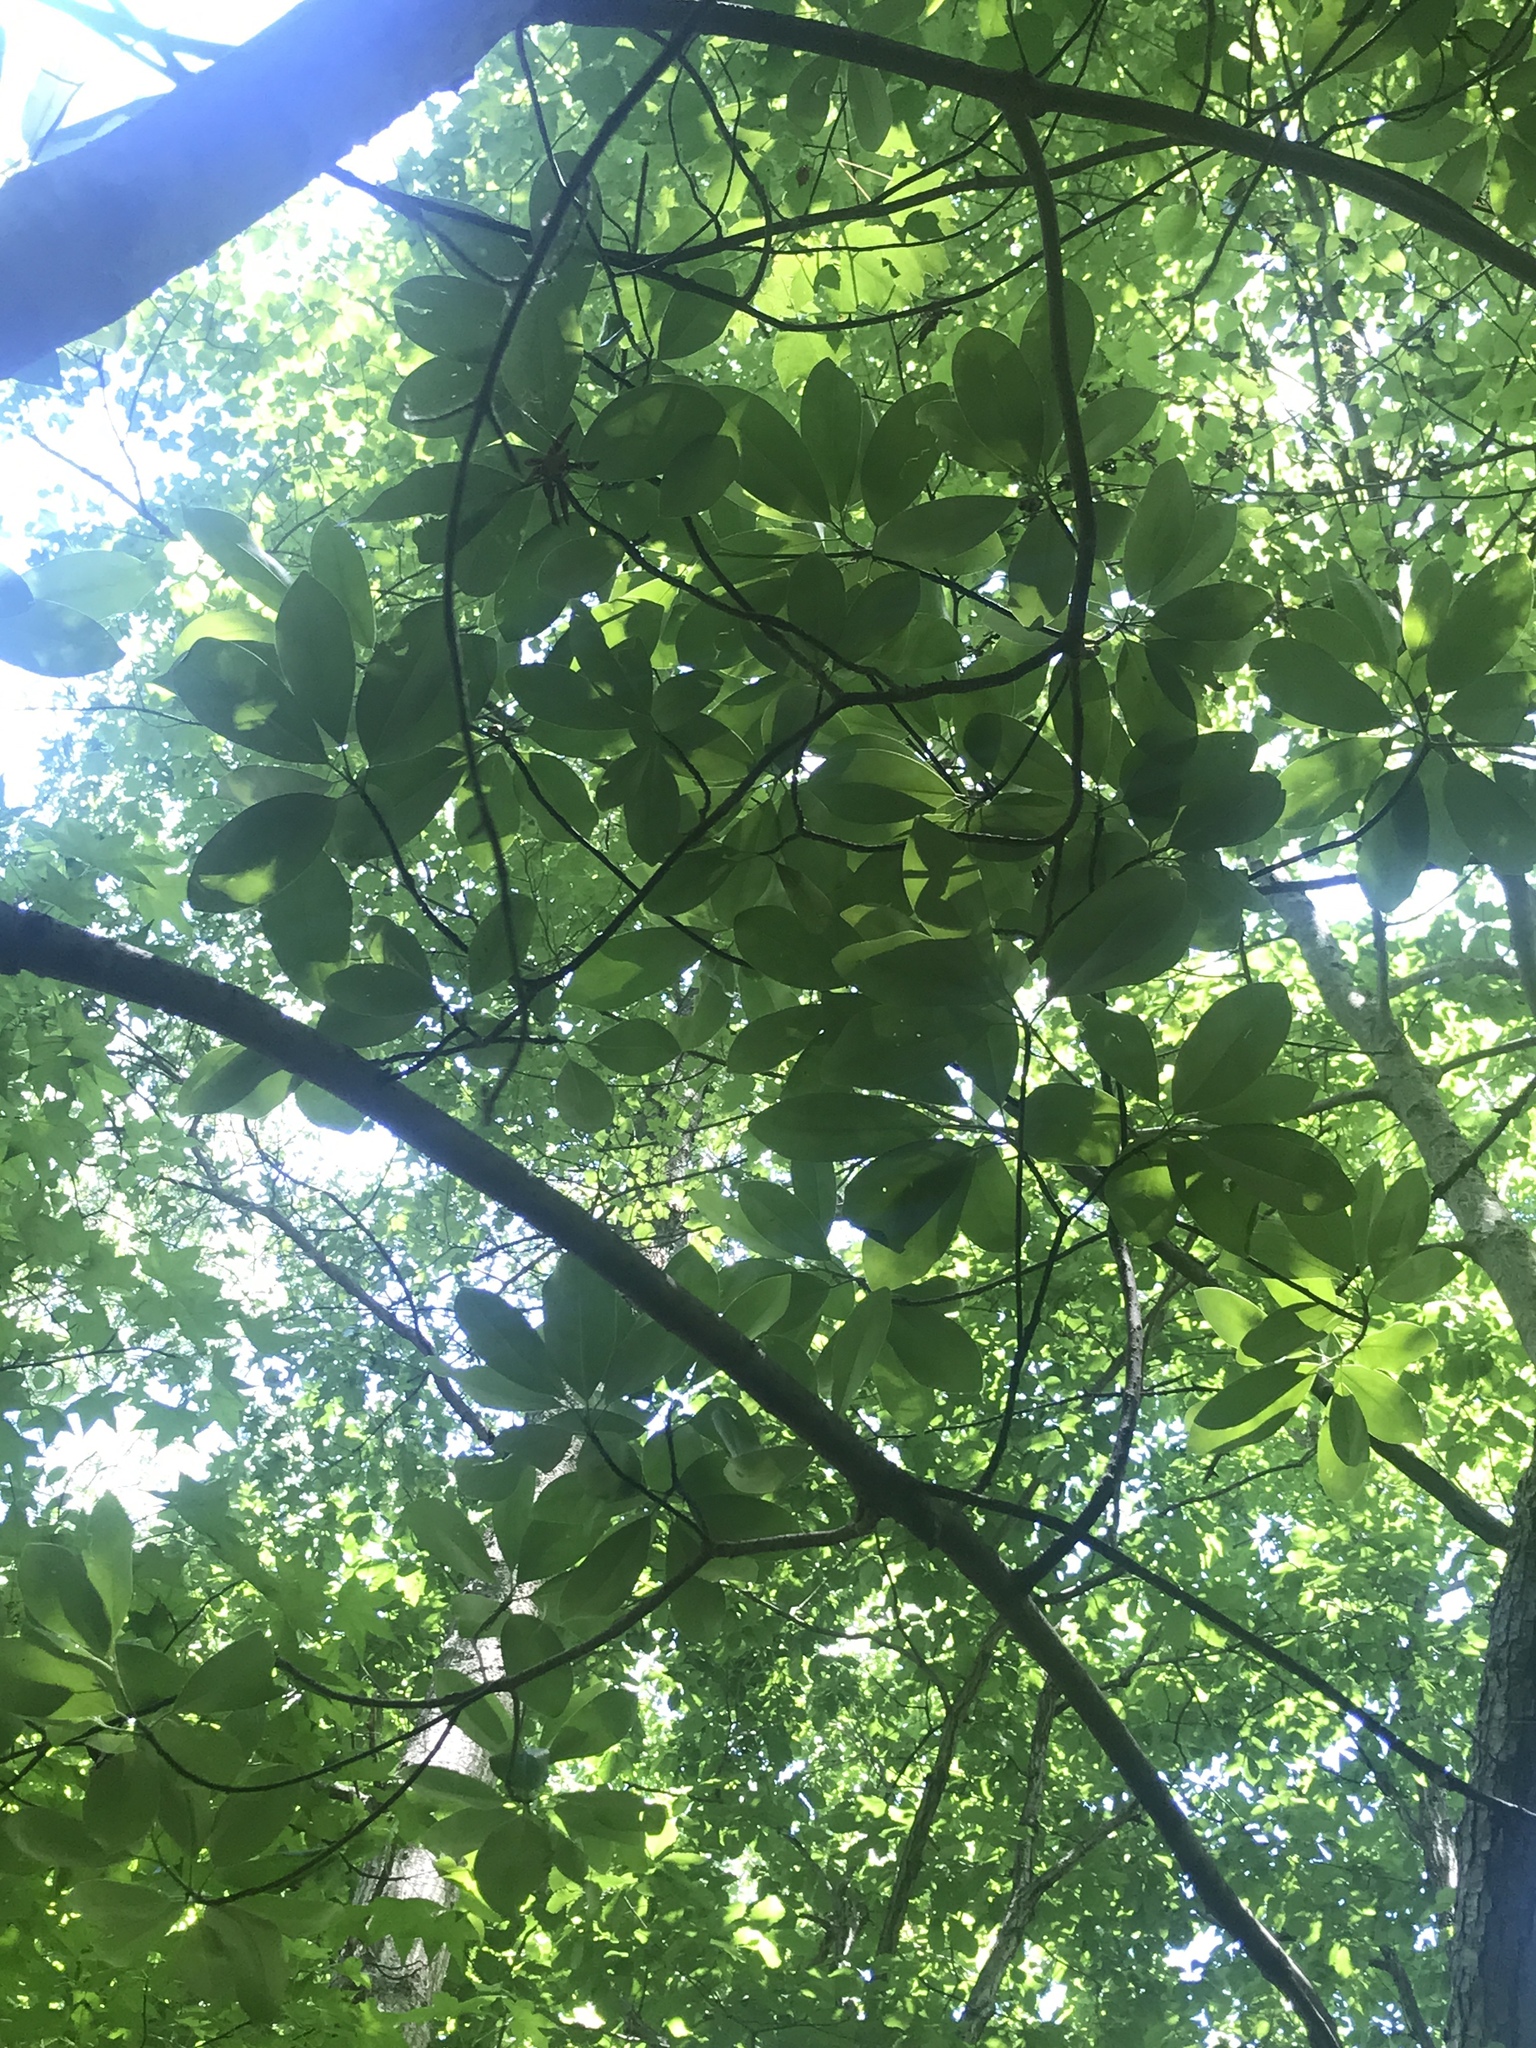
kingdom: Plantae
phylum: Tracheophyta
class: Magnoliopsida
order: Magnoliales
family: Magnoliaceae
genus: Magnolia
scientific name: Magnolia virginiana
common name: Swamp bay
